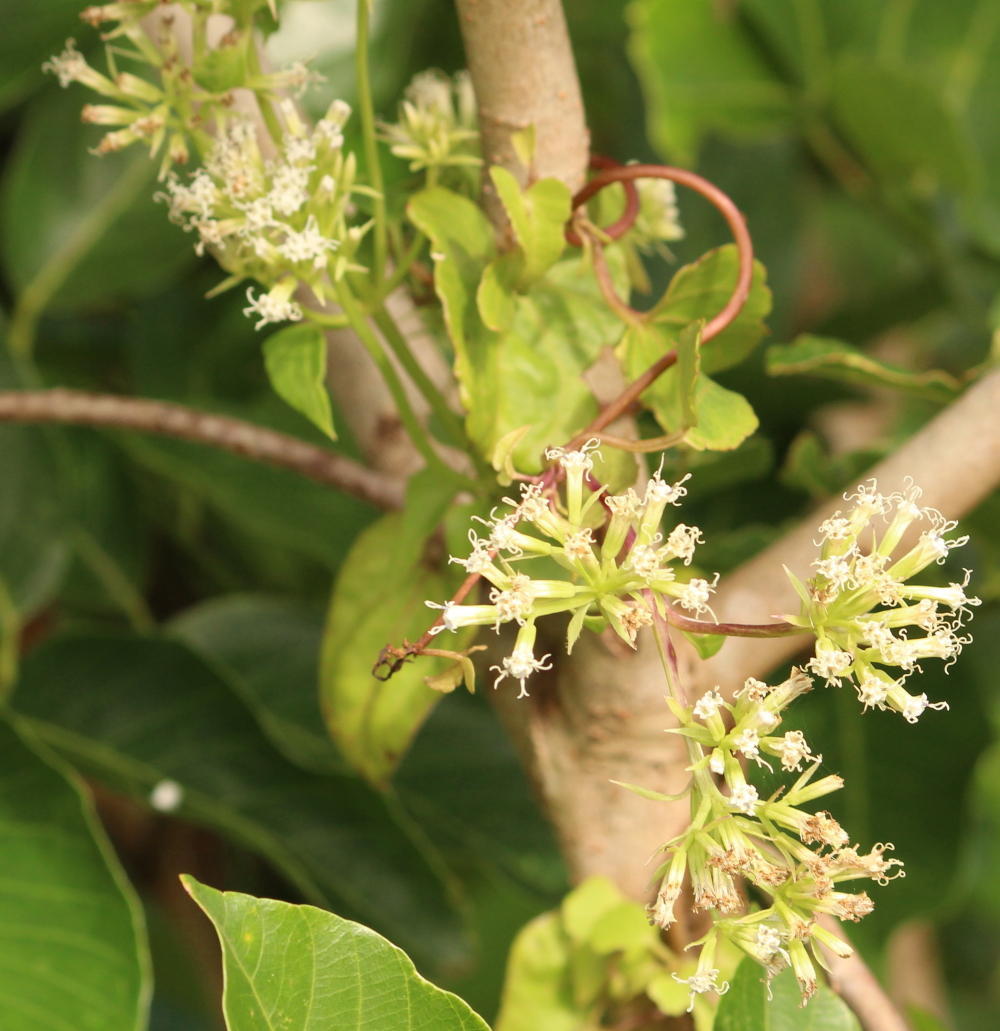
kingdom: Plantae
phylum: Tracheophyta
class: Magnoliopsida
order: Asterales
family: Asteraceae
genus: Mikania
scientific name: Mikania natalensis
